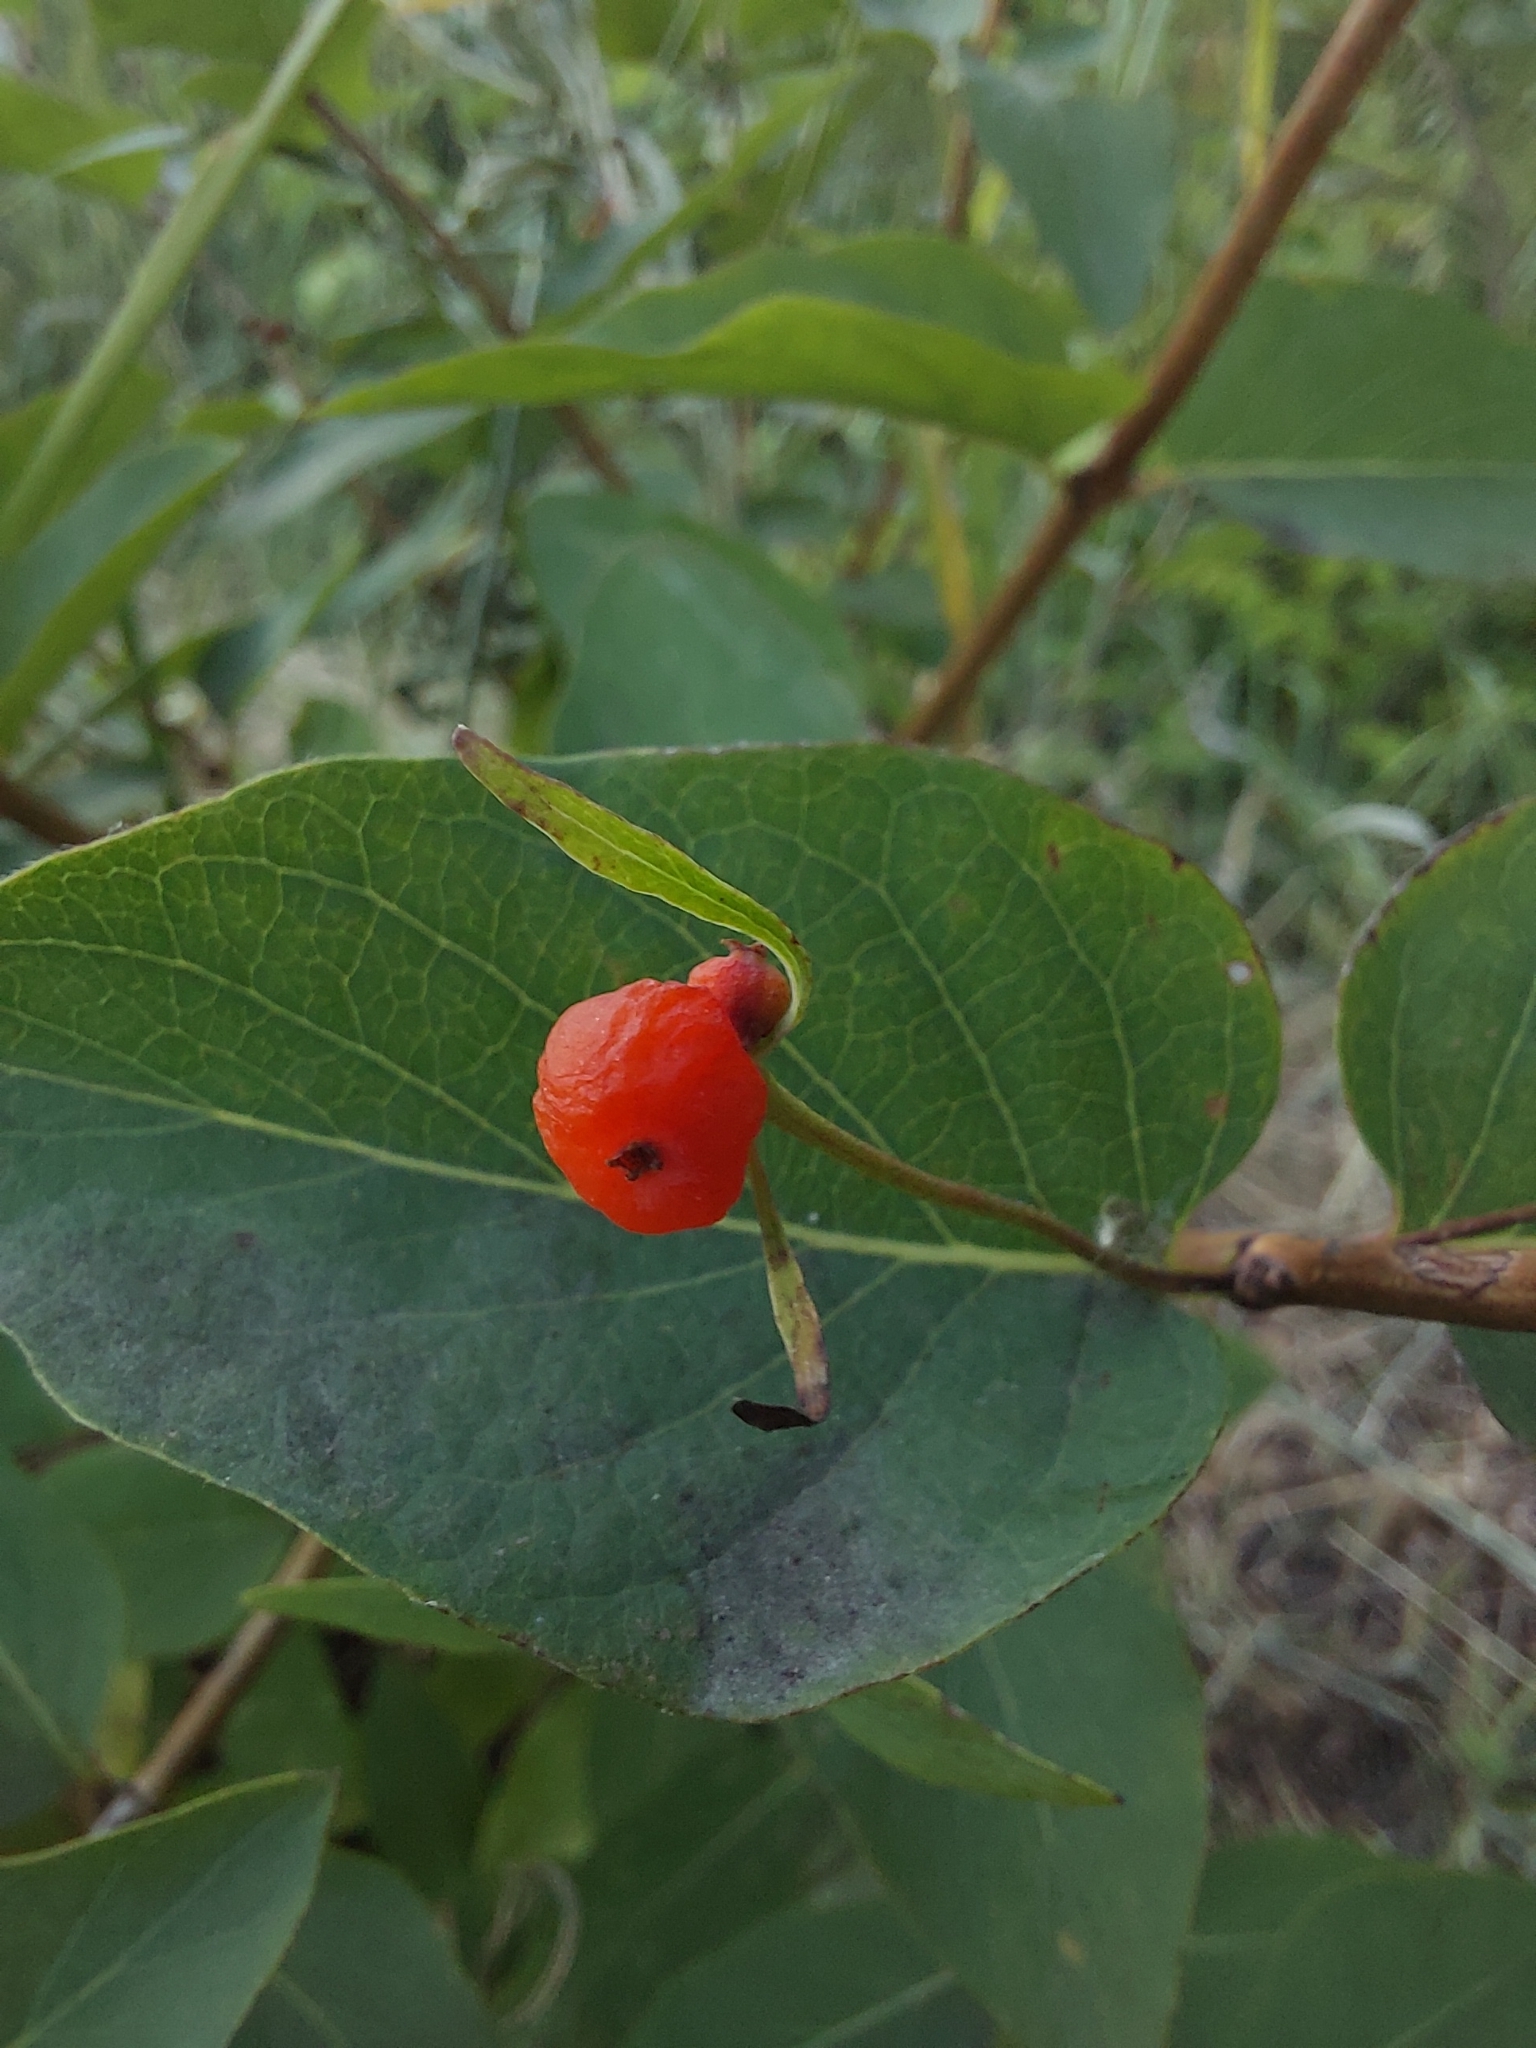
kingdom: Plantae
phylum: Tracheophyta
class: Magnoliopsida
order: Dipsacales
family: Caprifoliaceae
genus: Lonicera
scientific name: Lonicera tatarica
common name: Tatarian honeysuckle
